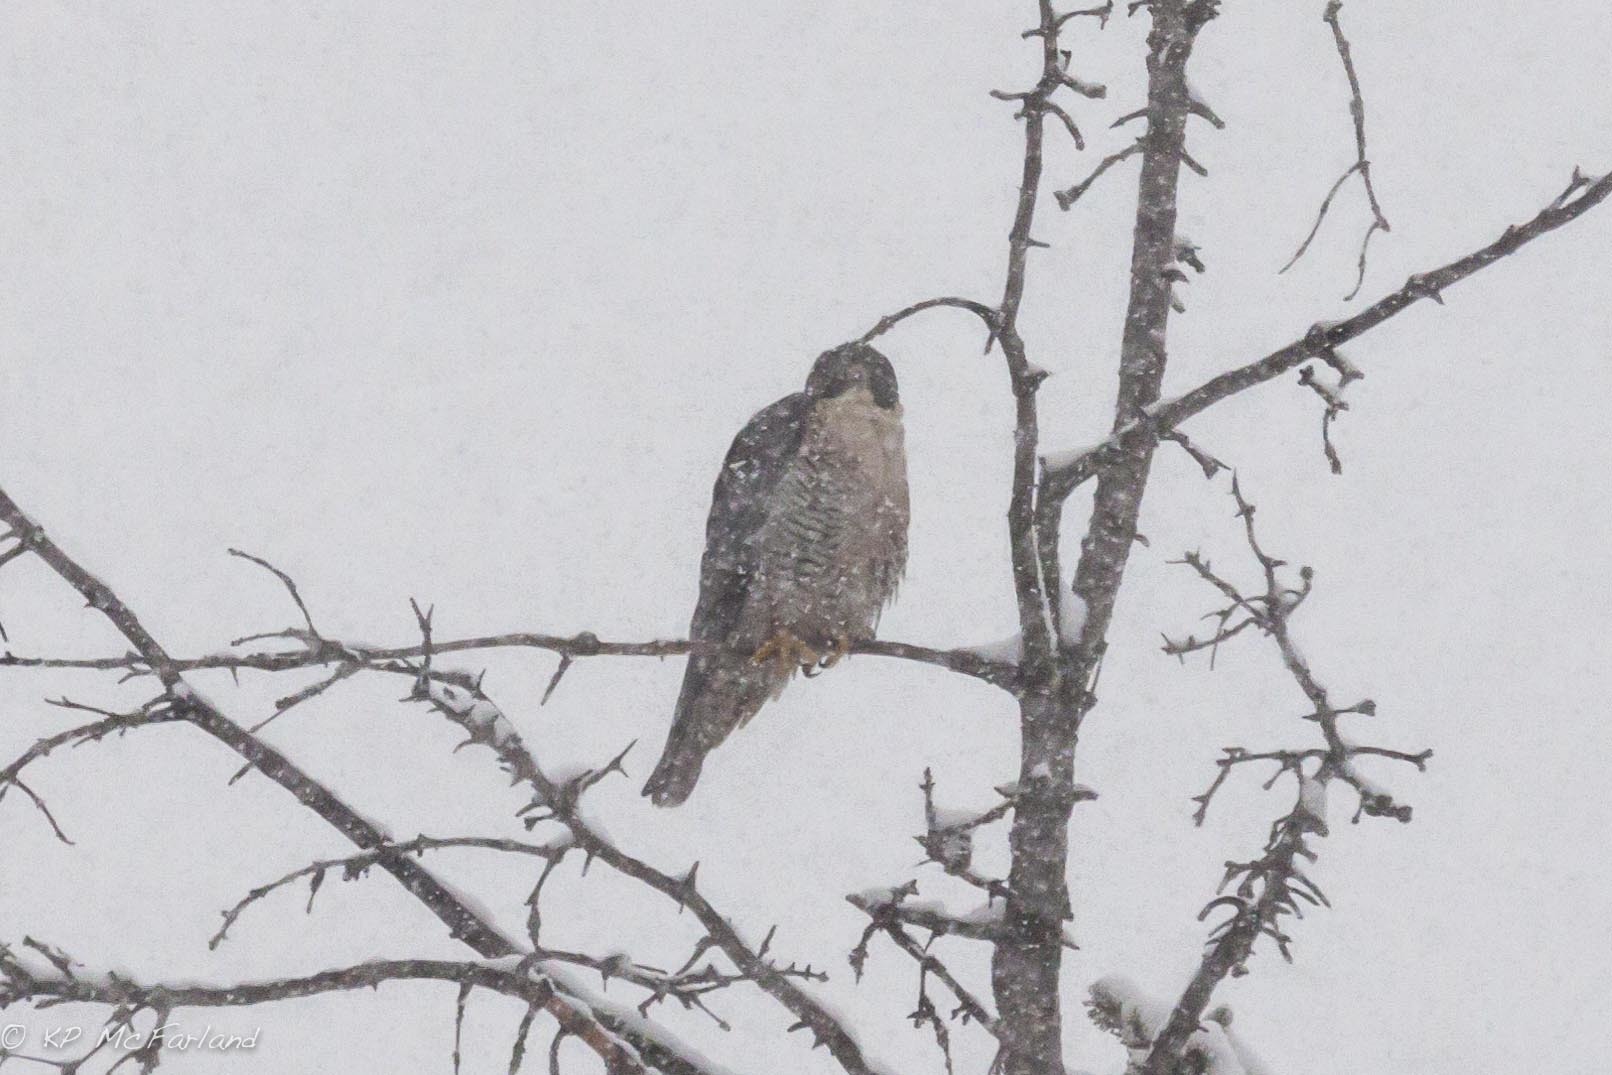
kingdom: Animalia
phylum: Chordata
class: Aves
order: Falconiformes
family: Falconidae
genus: Falco
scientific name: Falco peregrinus
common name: Peregrine falcon
